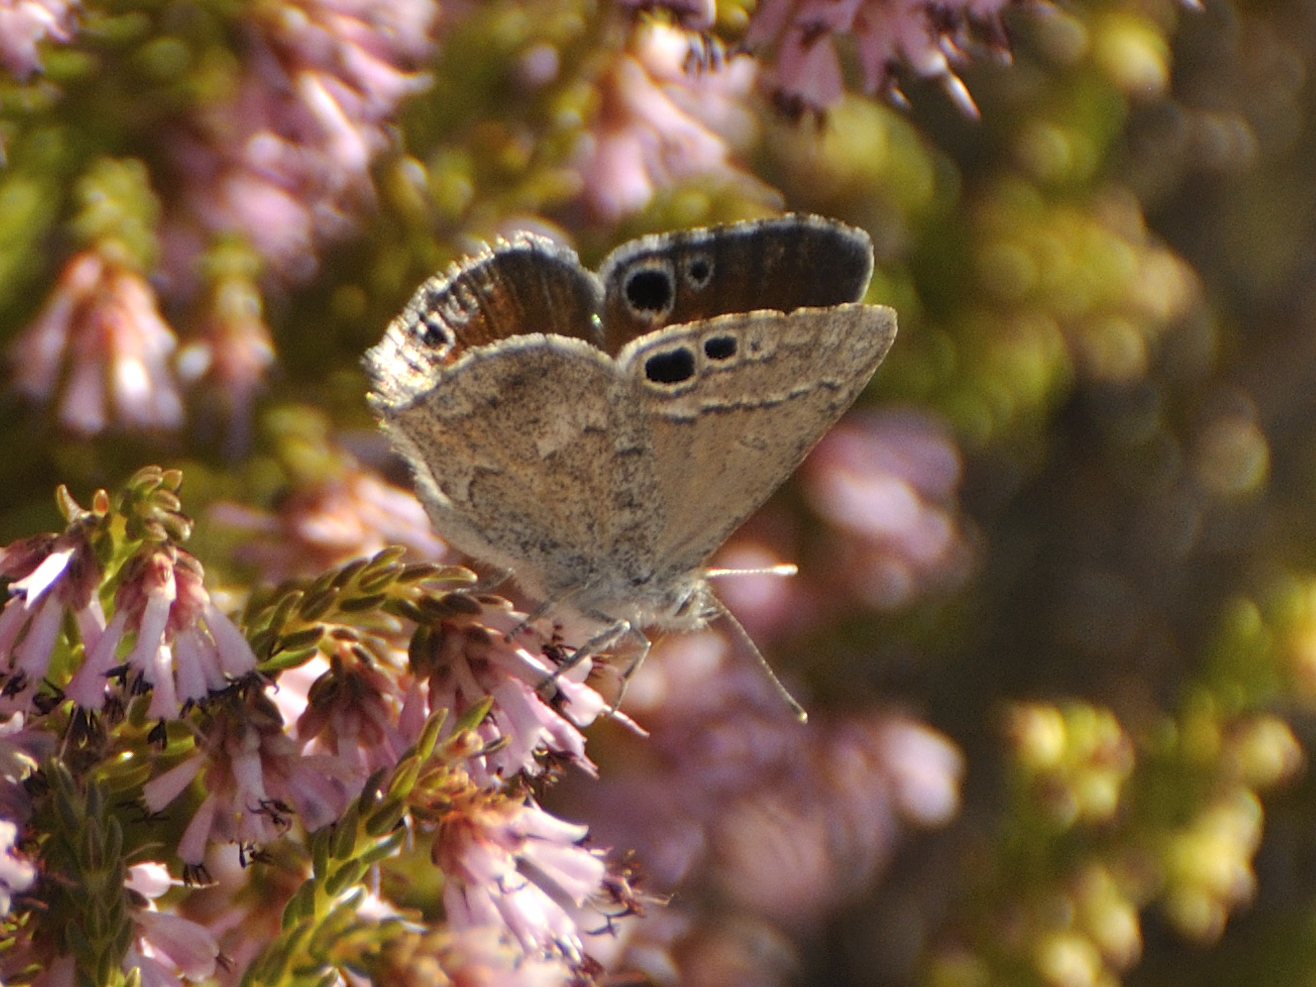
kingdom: Animalia
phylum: Arthropoda
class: Insecta
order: Lepidoptera
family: Lycaenidae
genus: Leptomyrina
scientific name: Leptomyrina lara
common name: Cape black-eye
